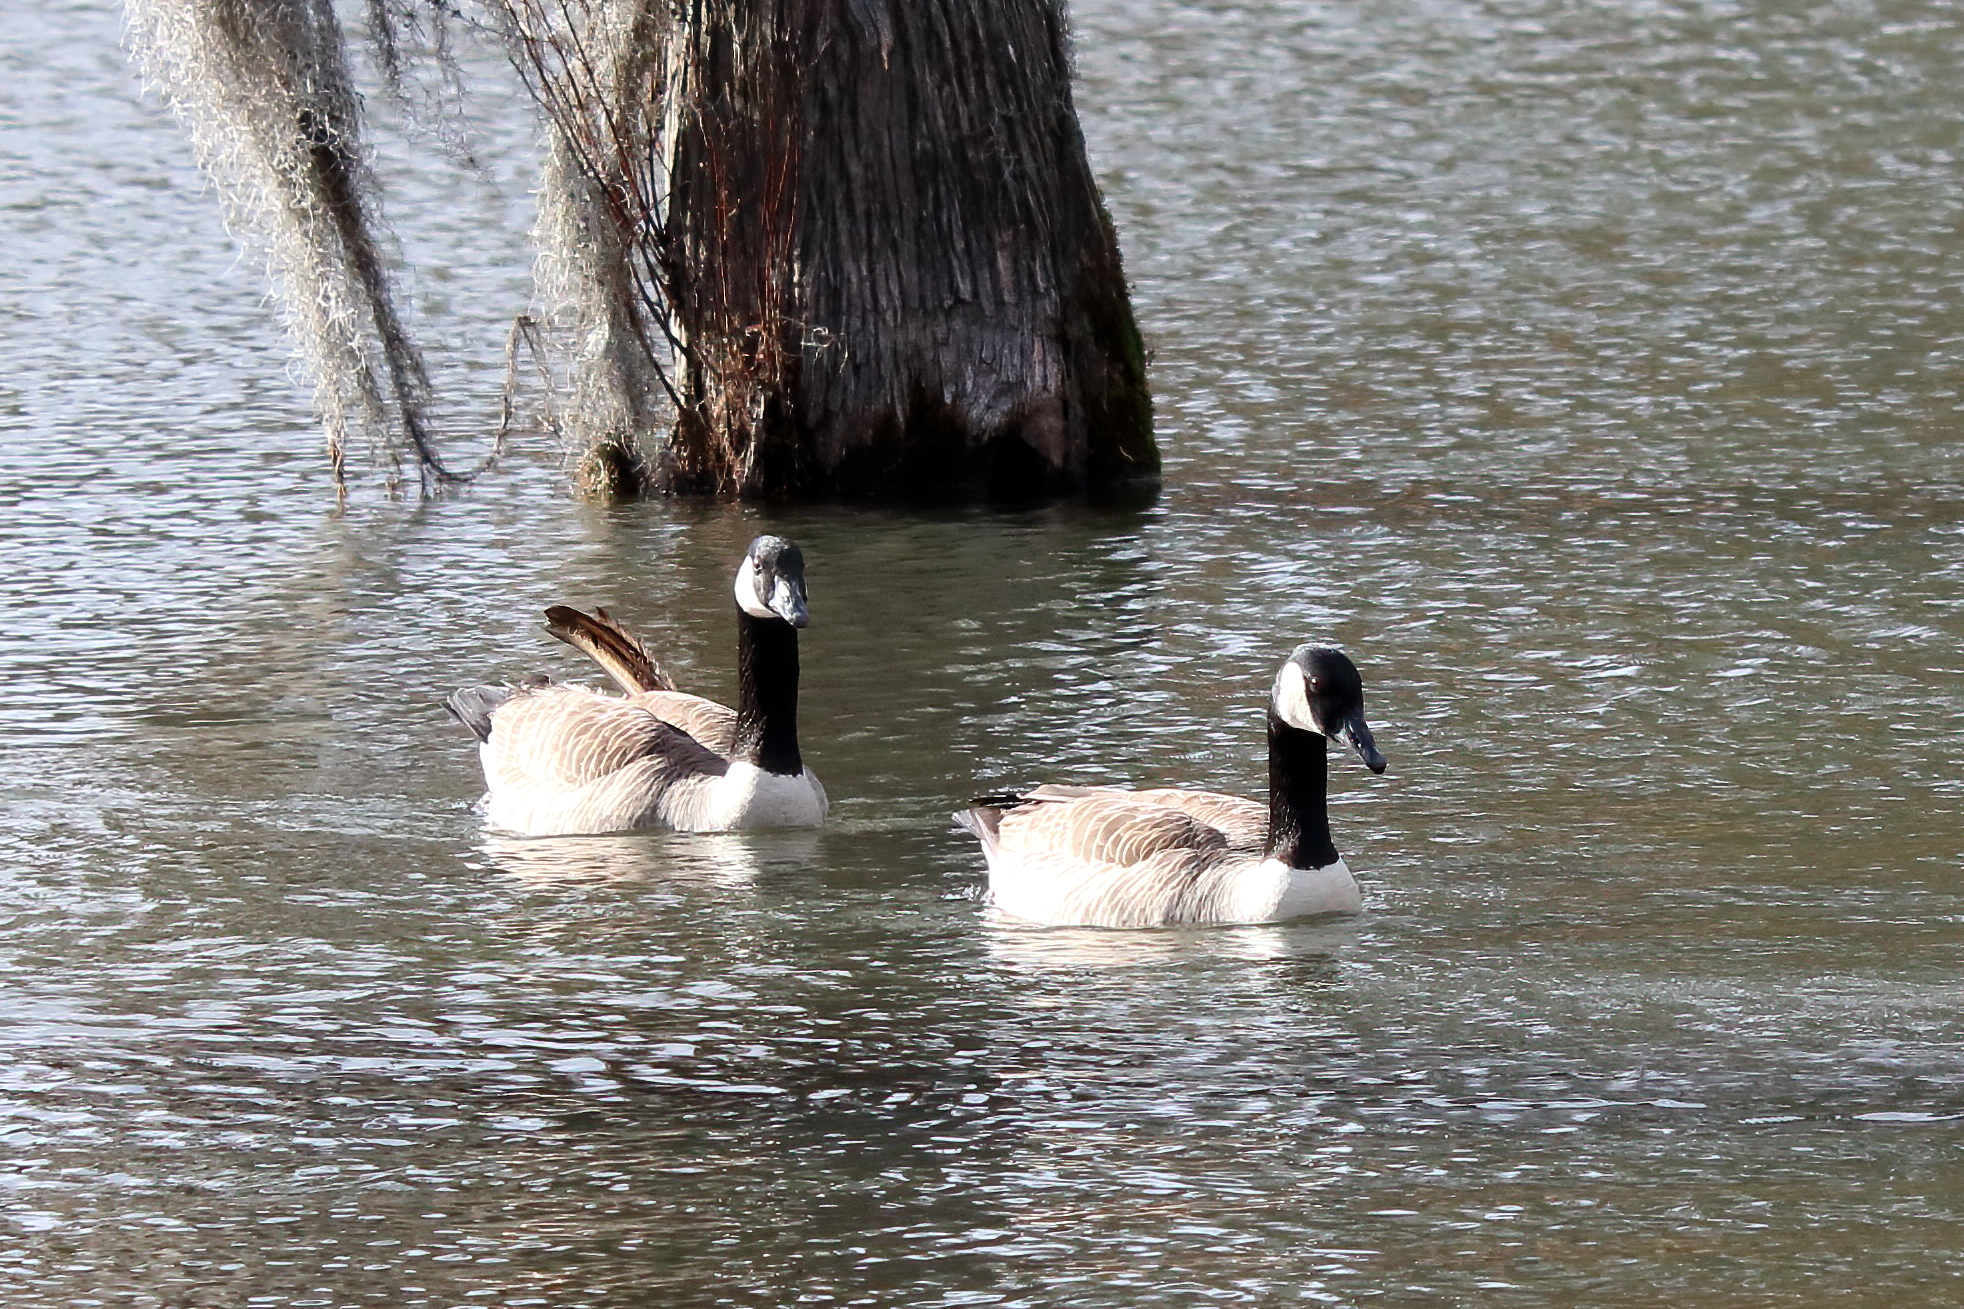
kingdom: Animalia
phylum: Chordata
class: Aves
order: Anseriformes
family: Anatidae
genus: Branta
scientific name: Branta canadensis
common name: Canada goose
